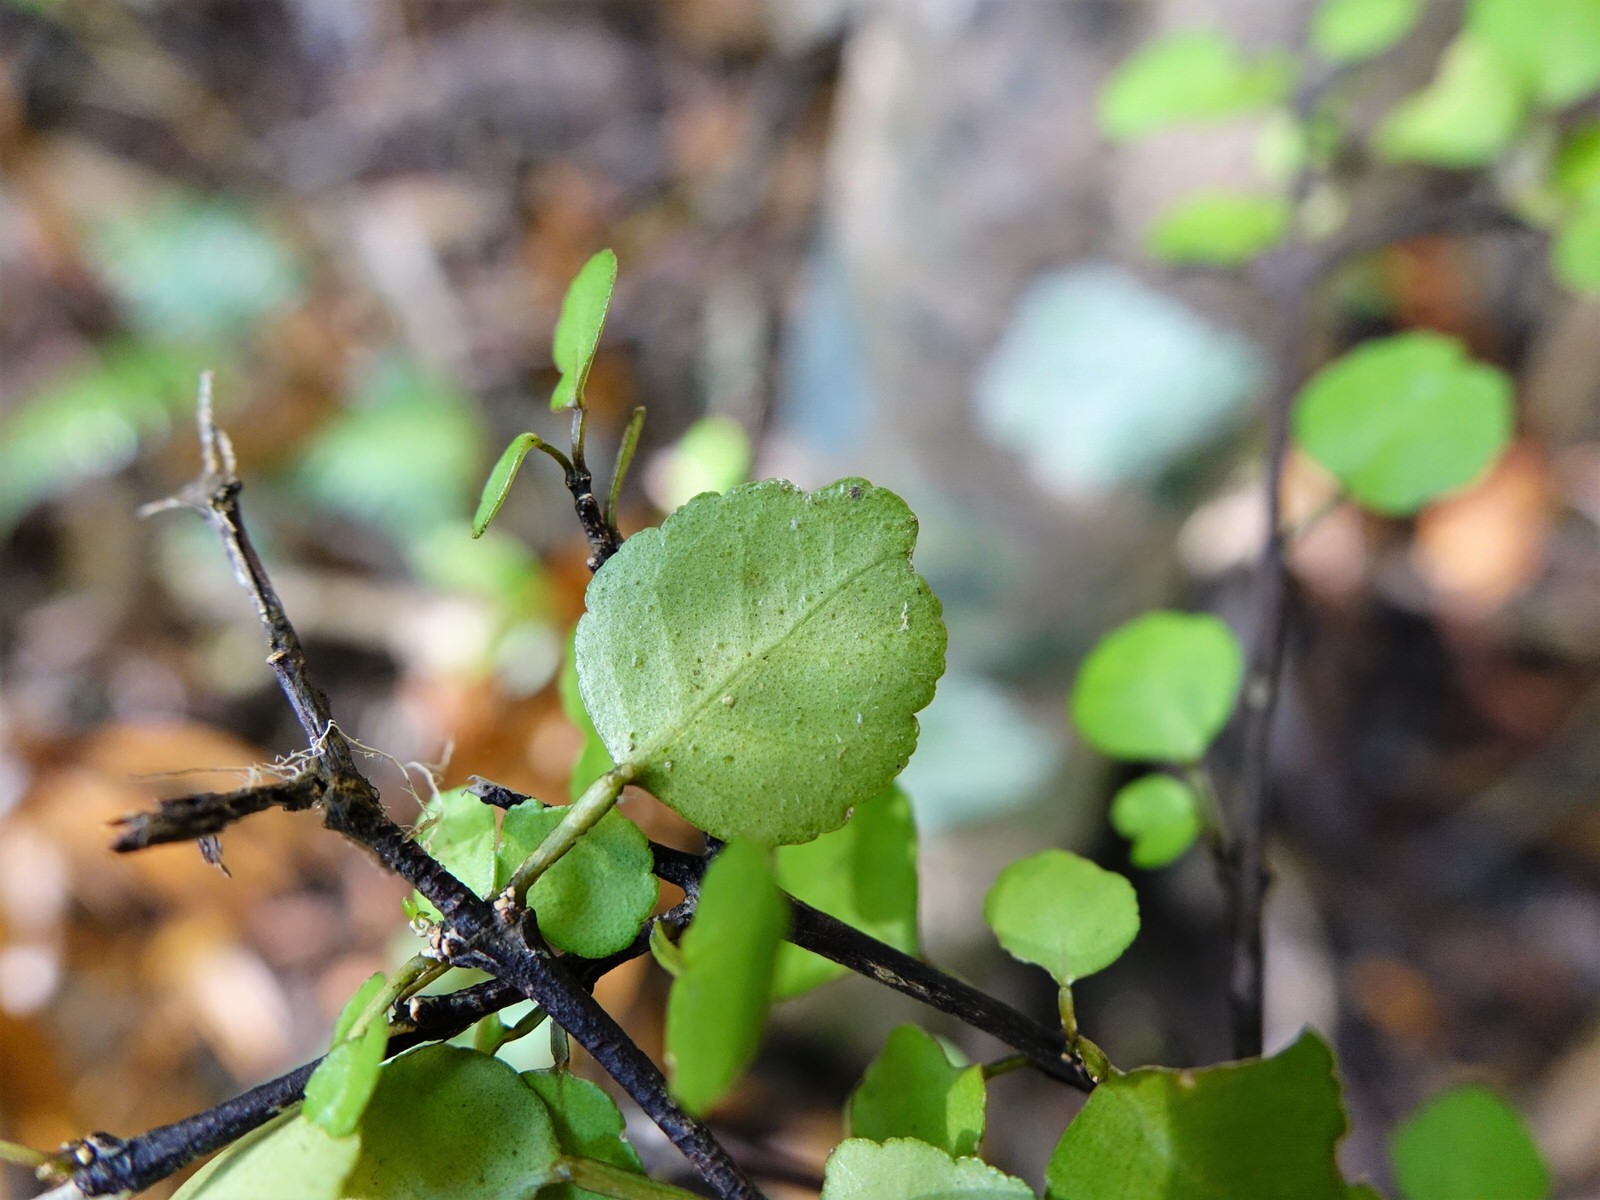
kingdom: Plantae
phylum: Tracheophyta
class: Magnoliopsida
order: Sapindales
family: Rutaceae
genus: Melicope
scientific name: Melicope simplex
